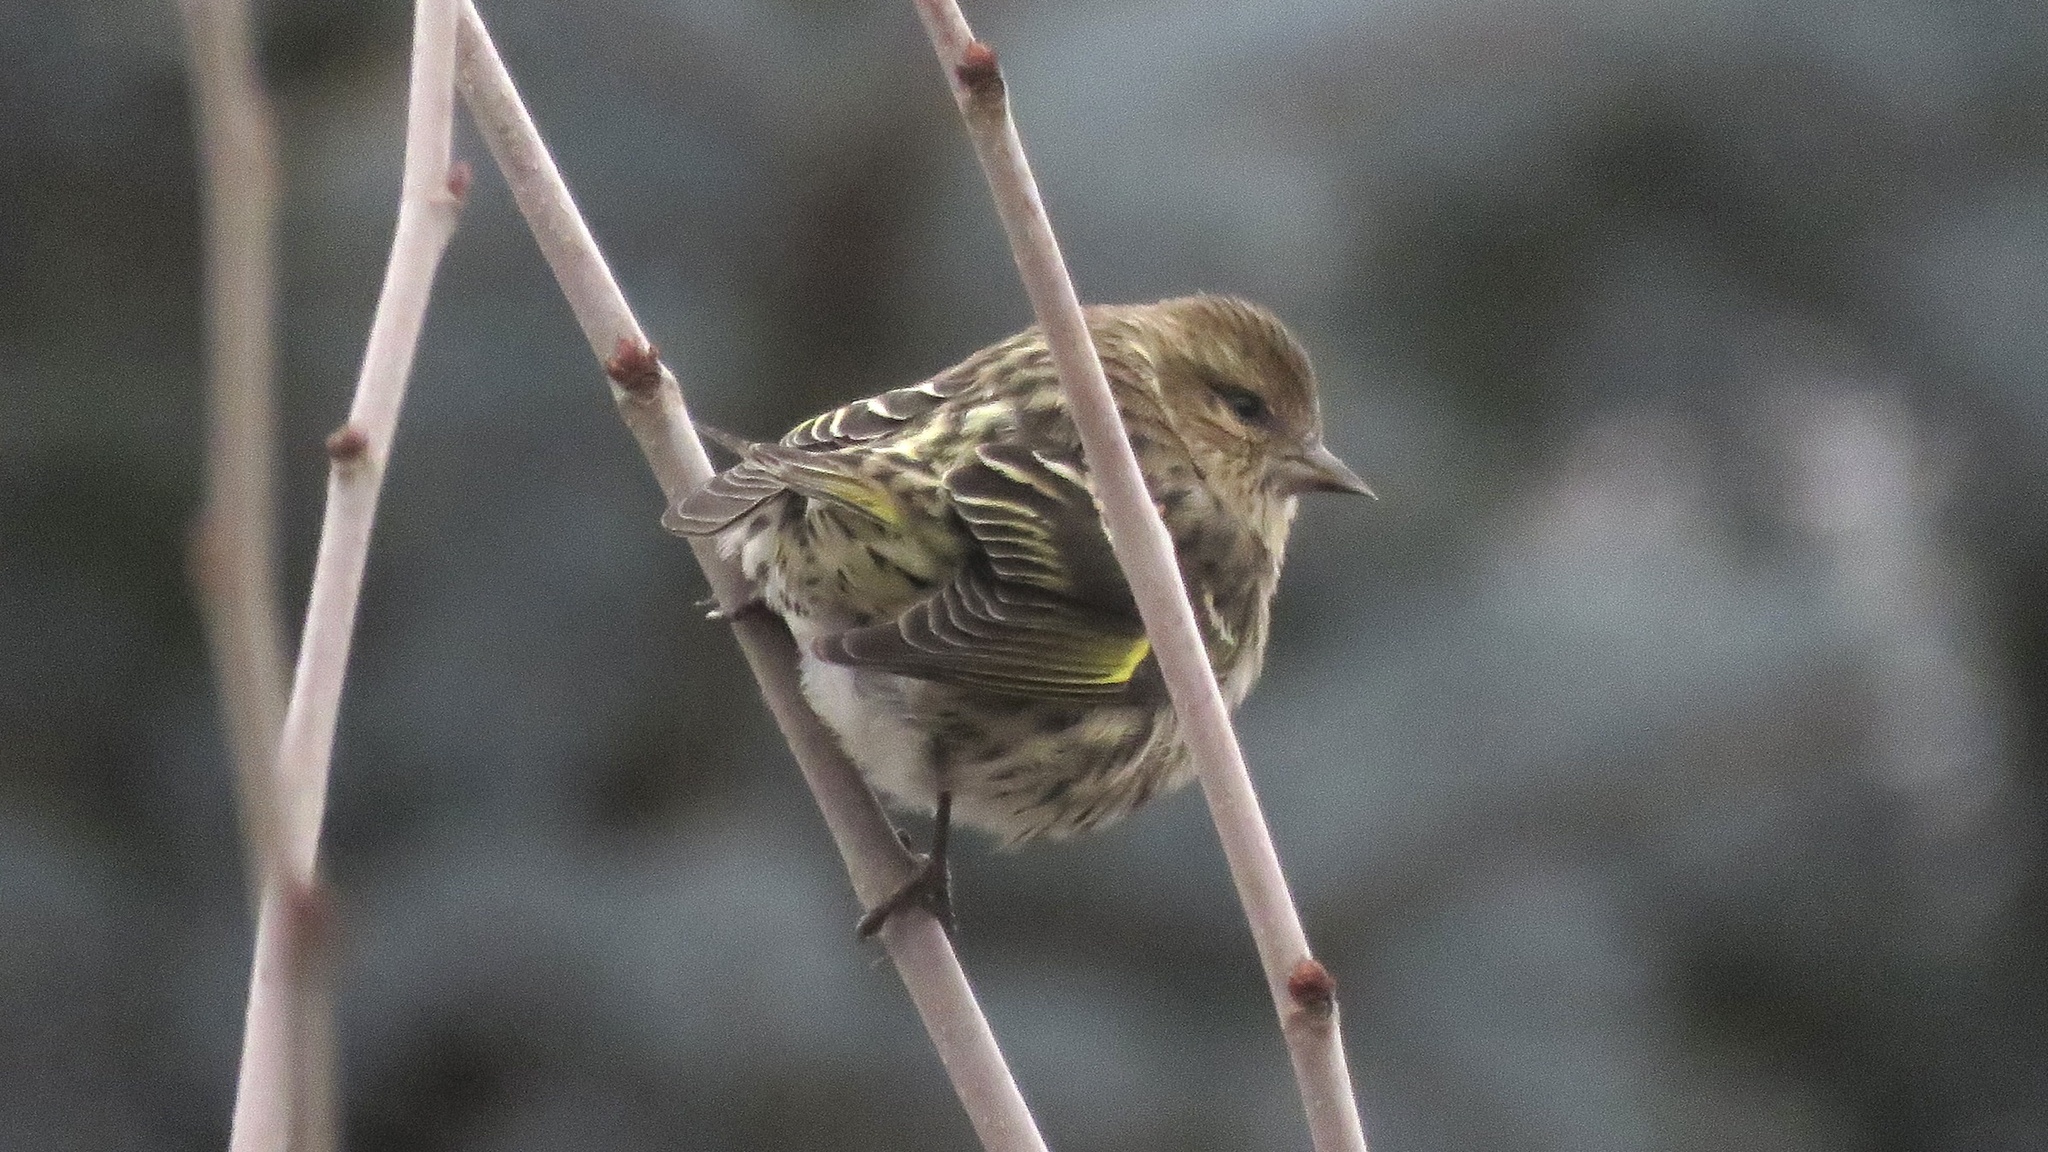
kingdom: Animalia
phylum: Chordata
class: Aves
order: Passeriformes
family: Fringillidae
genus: Spinus
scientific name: Spinus pinus
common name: Pine siskin
